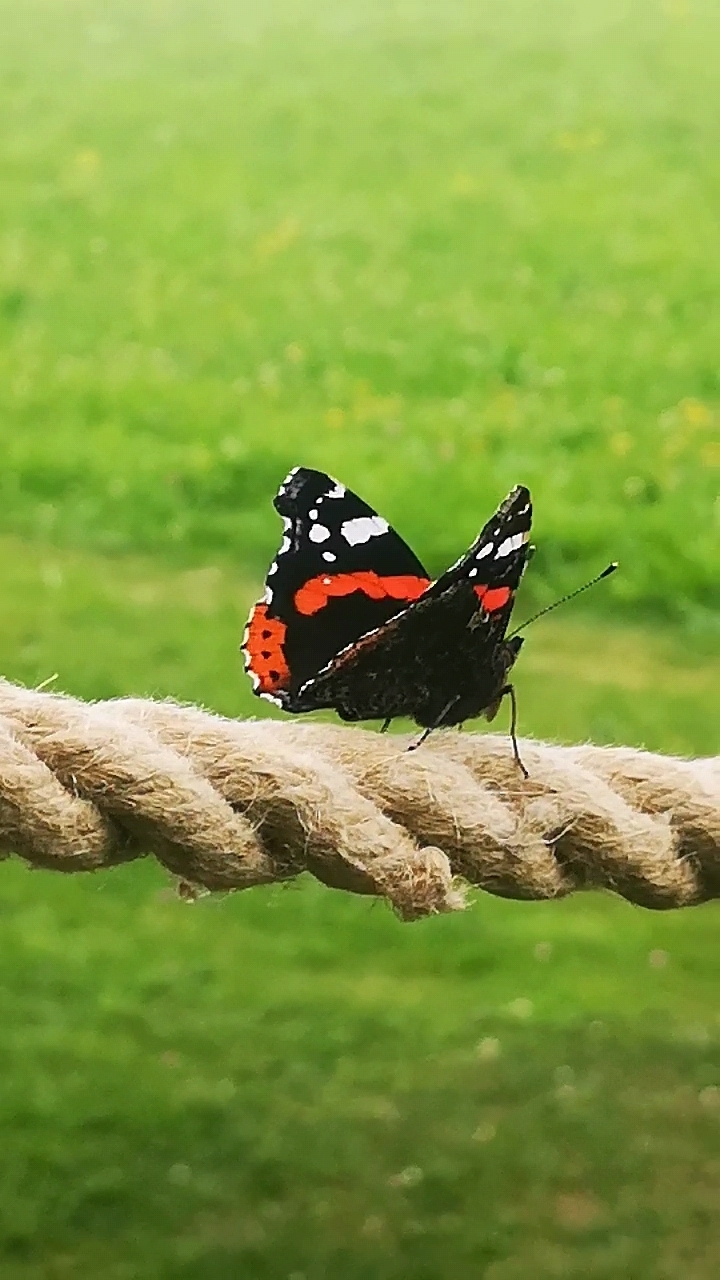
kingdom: Animalia
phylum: Arthropoda
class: Insecta
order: Lepidoptera
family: Nymphalidae
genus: Vanessa
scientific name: Vanessa atalanta
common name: Red admiral
